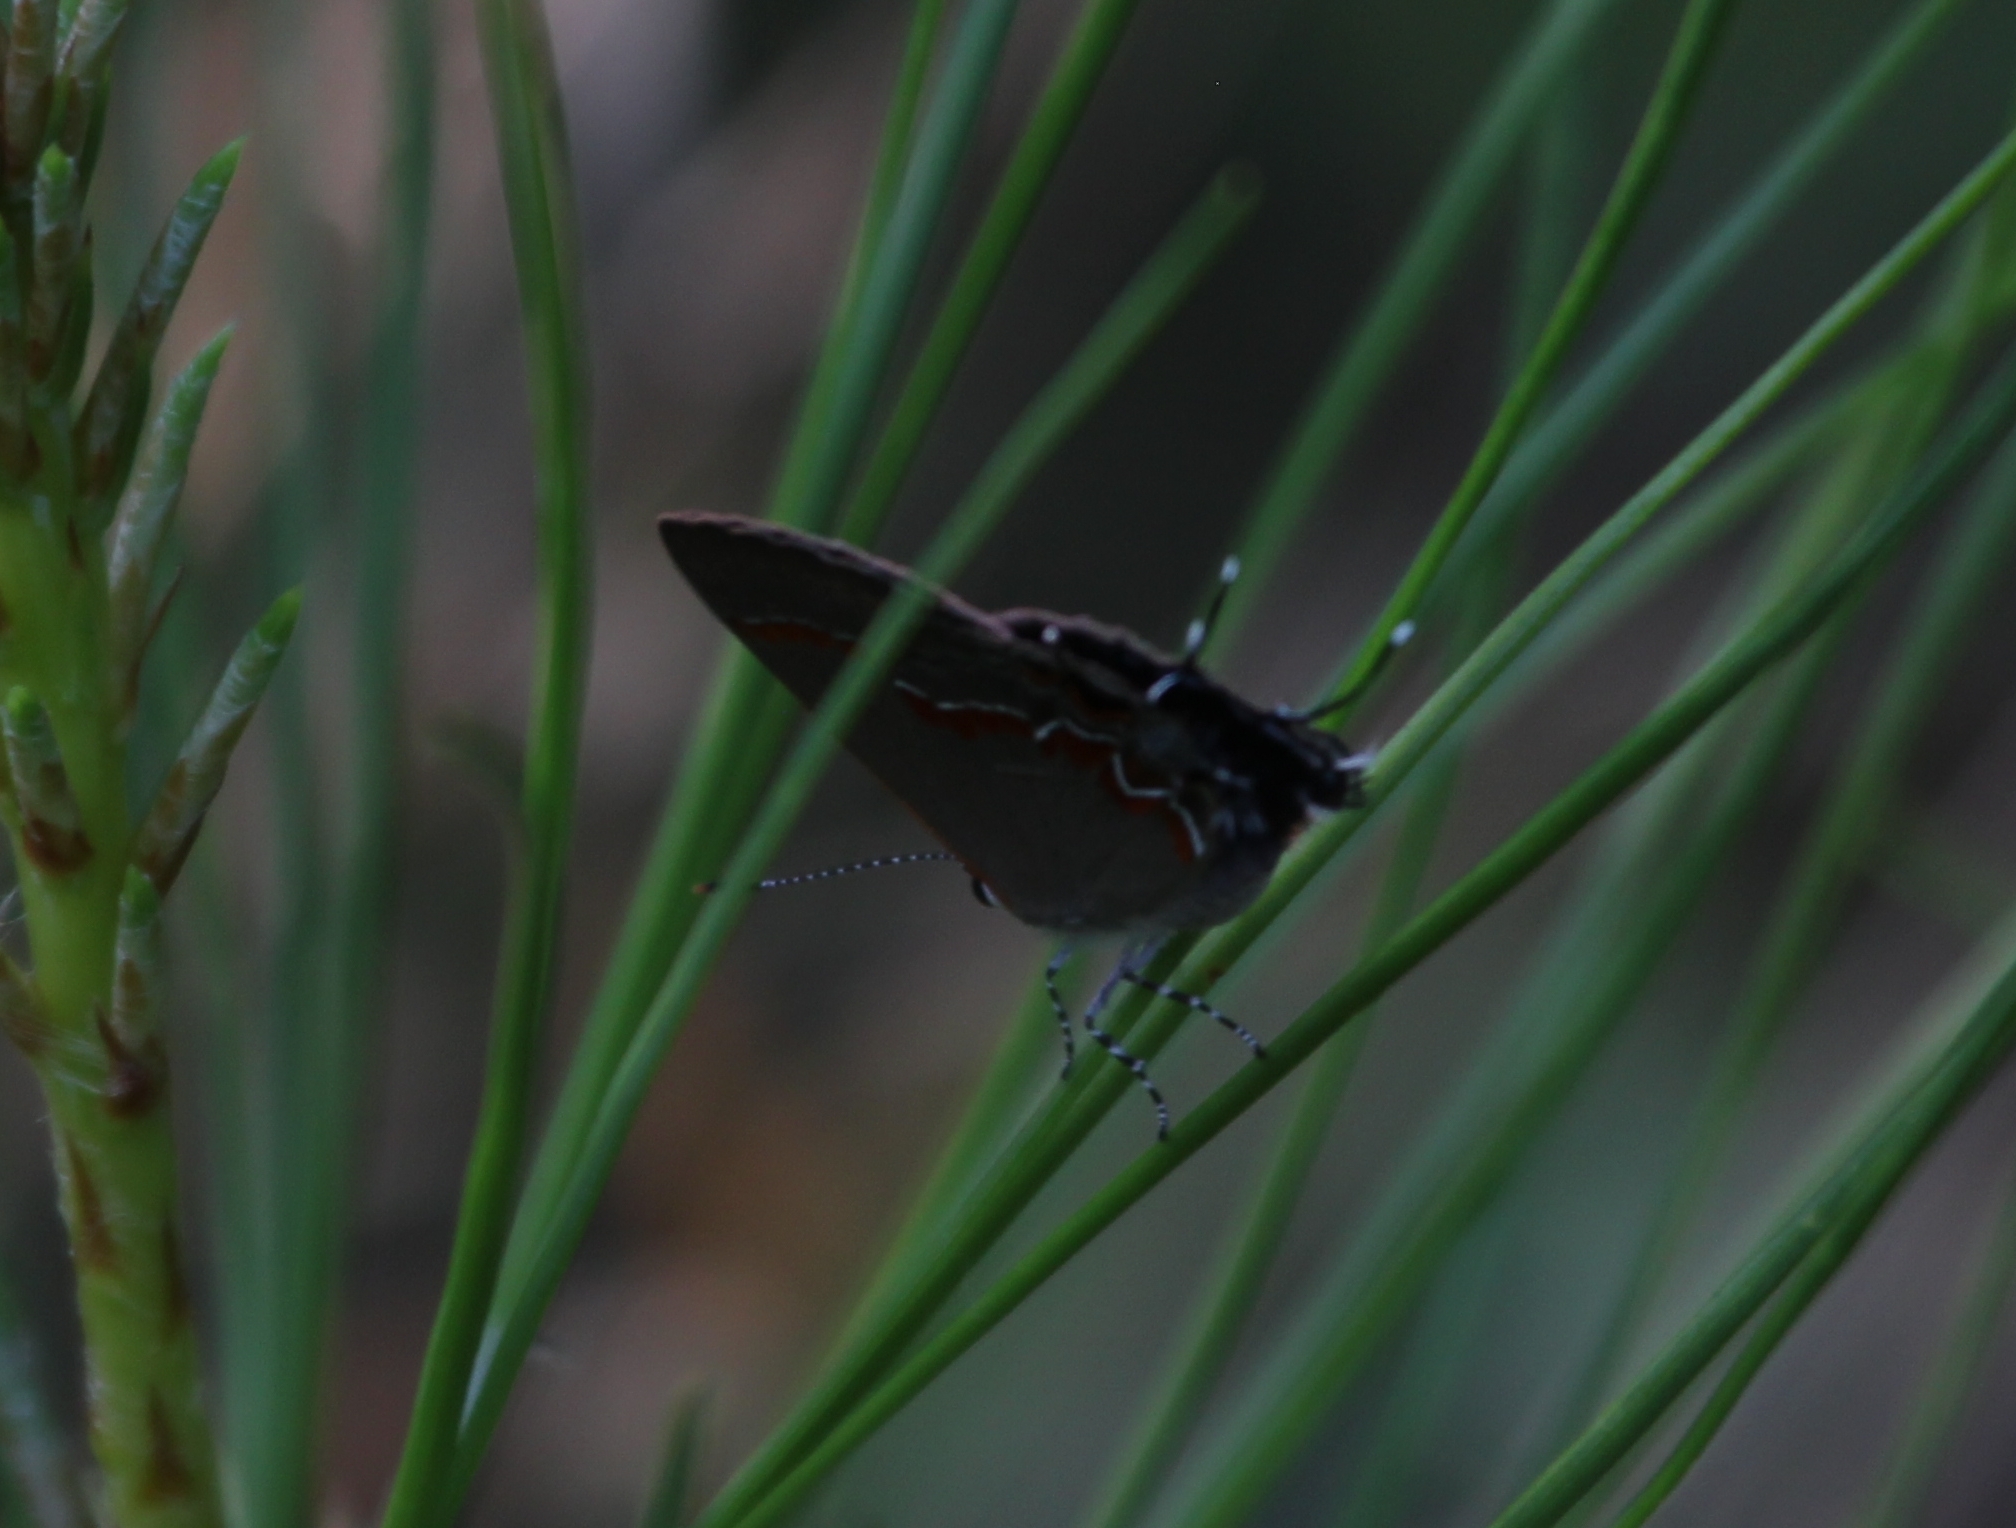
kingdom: Animalia
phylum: Arthropoda
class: Insecta
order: Lepidoptera
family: Lycaenidae
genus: Calycopis
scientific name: Calycopis cecrops
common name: Red-banded hairstreak
